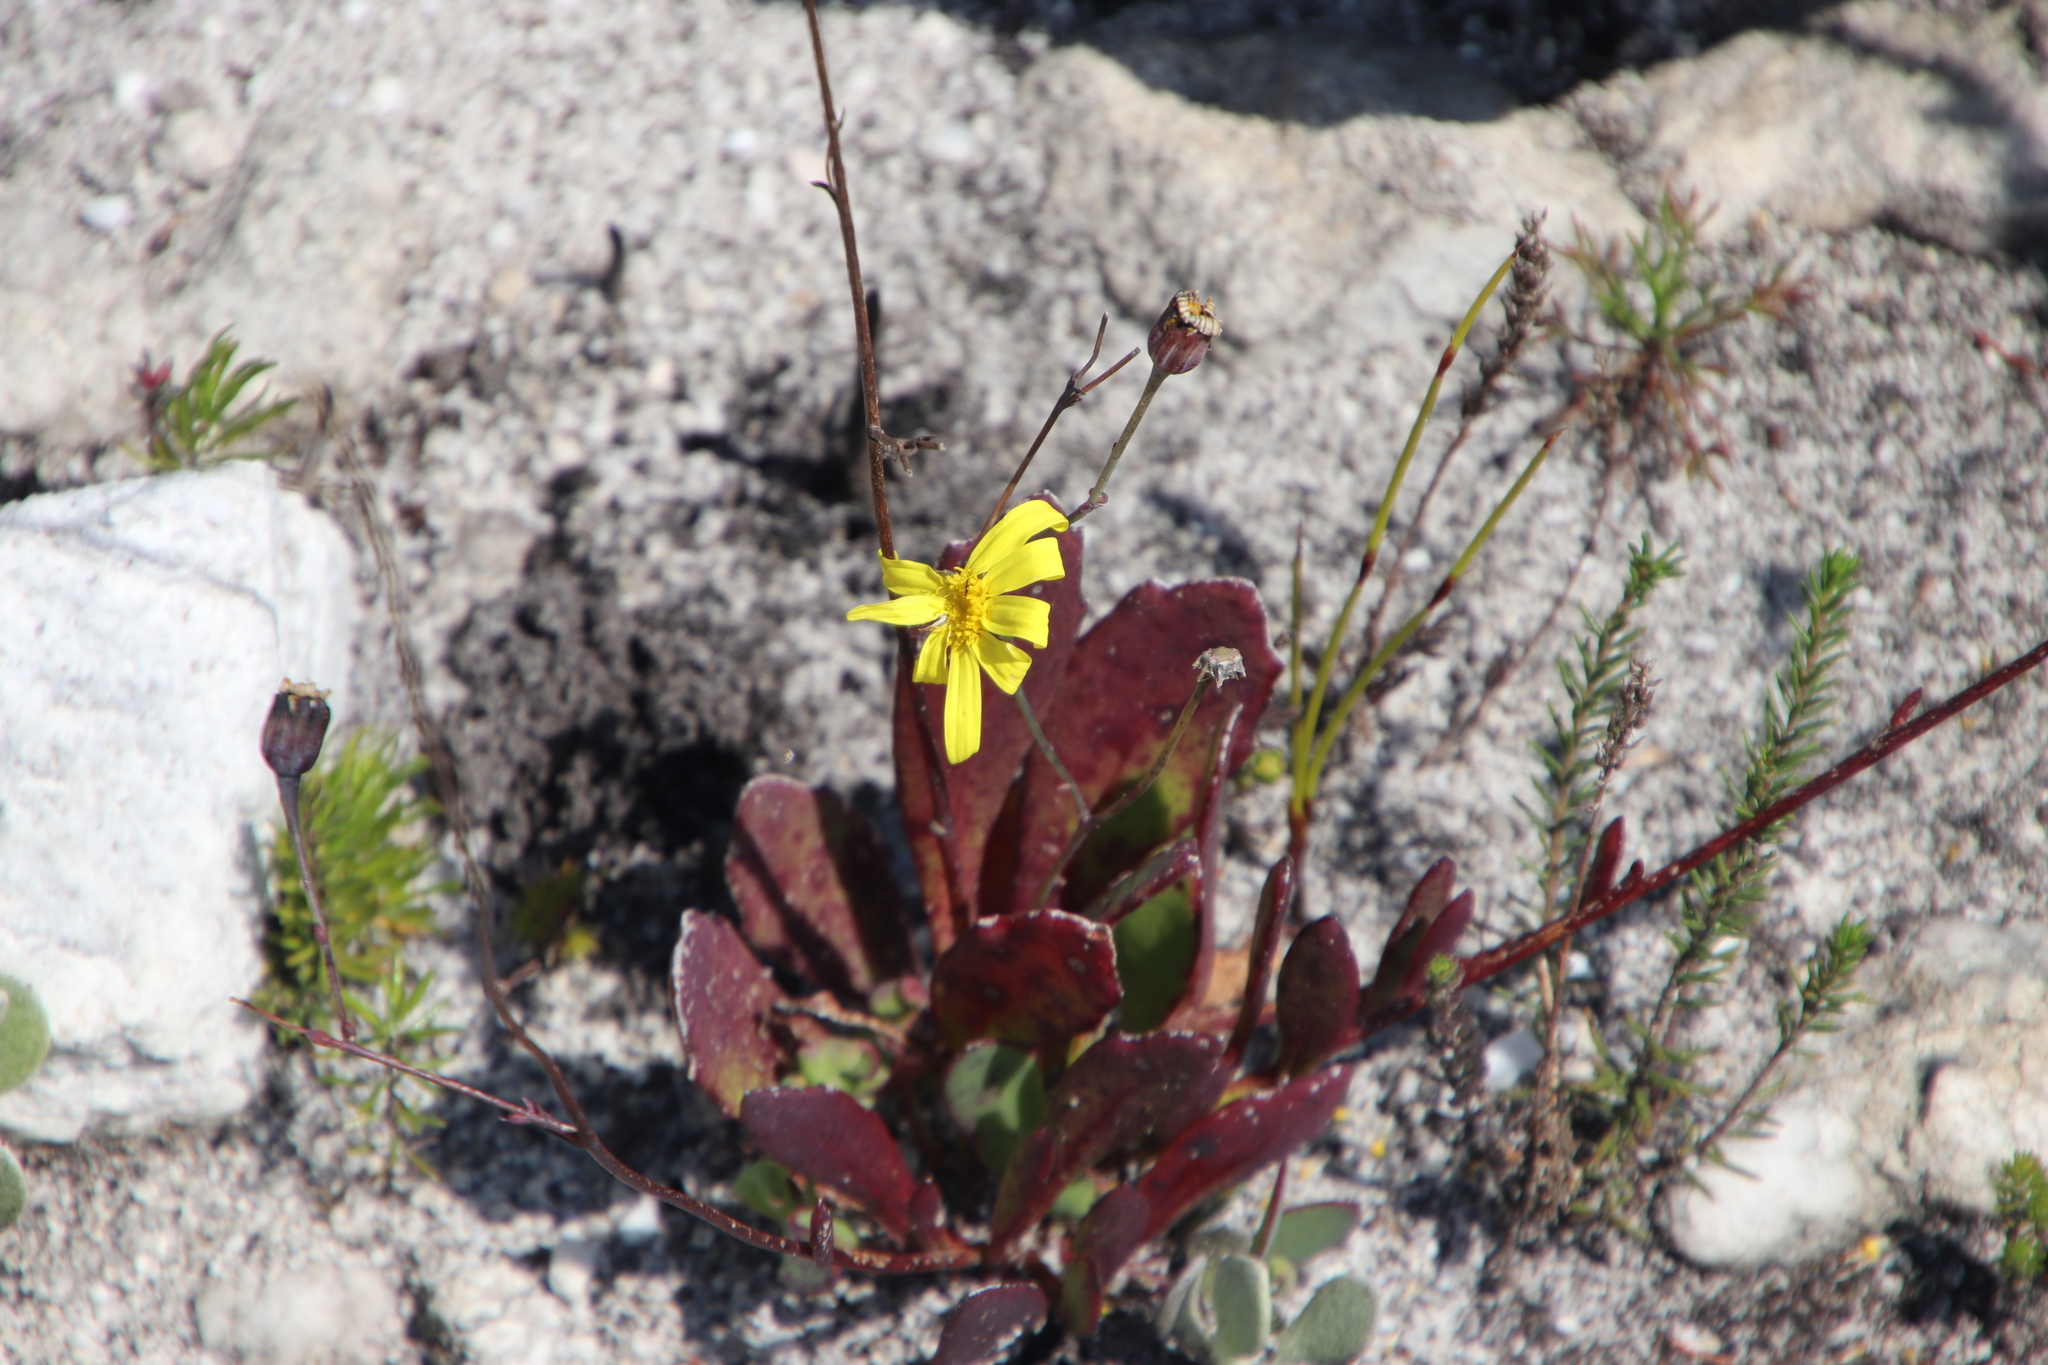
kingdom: Plantae
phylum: Tracheophyta
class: Magnoliopsida
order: Asterales
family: Asteraceae
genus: Othonna
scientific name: Othonna multicaulis
